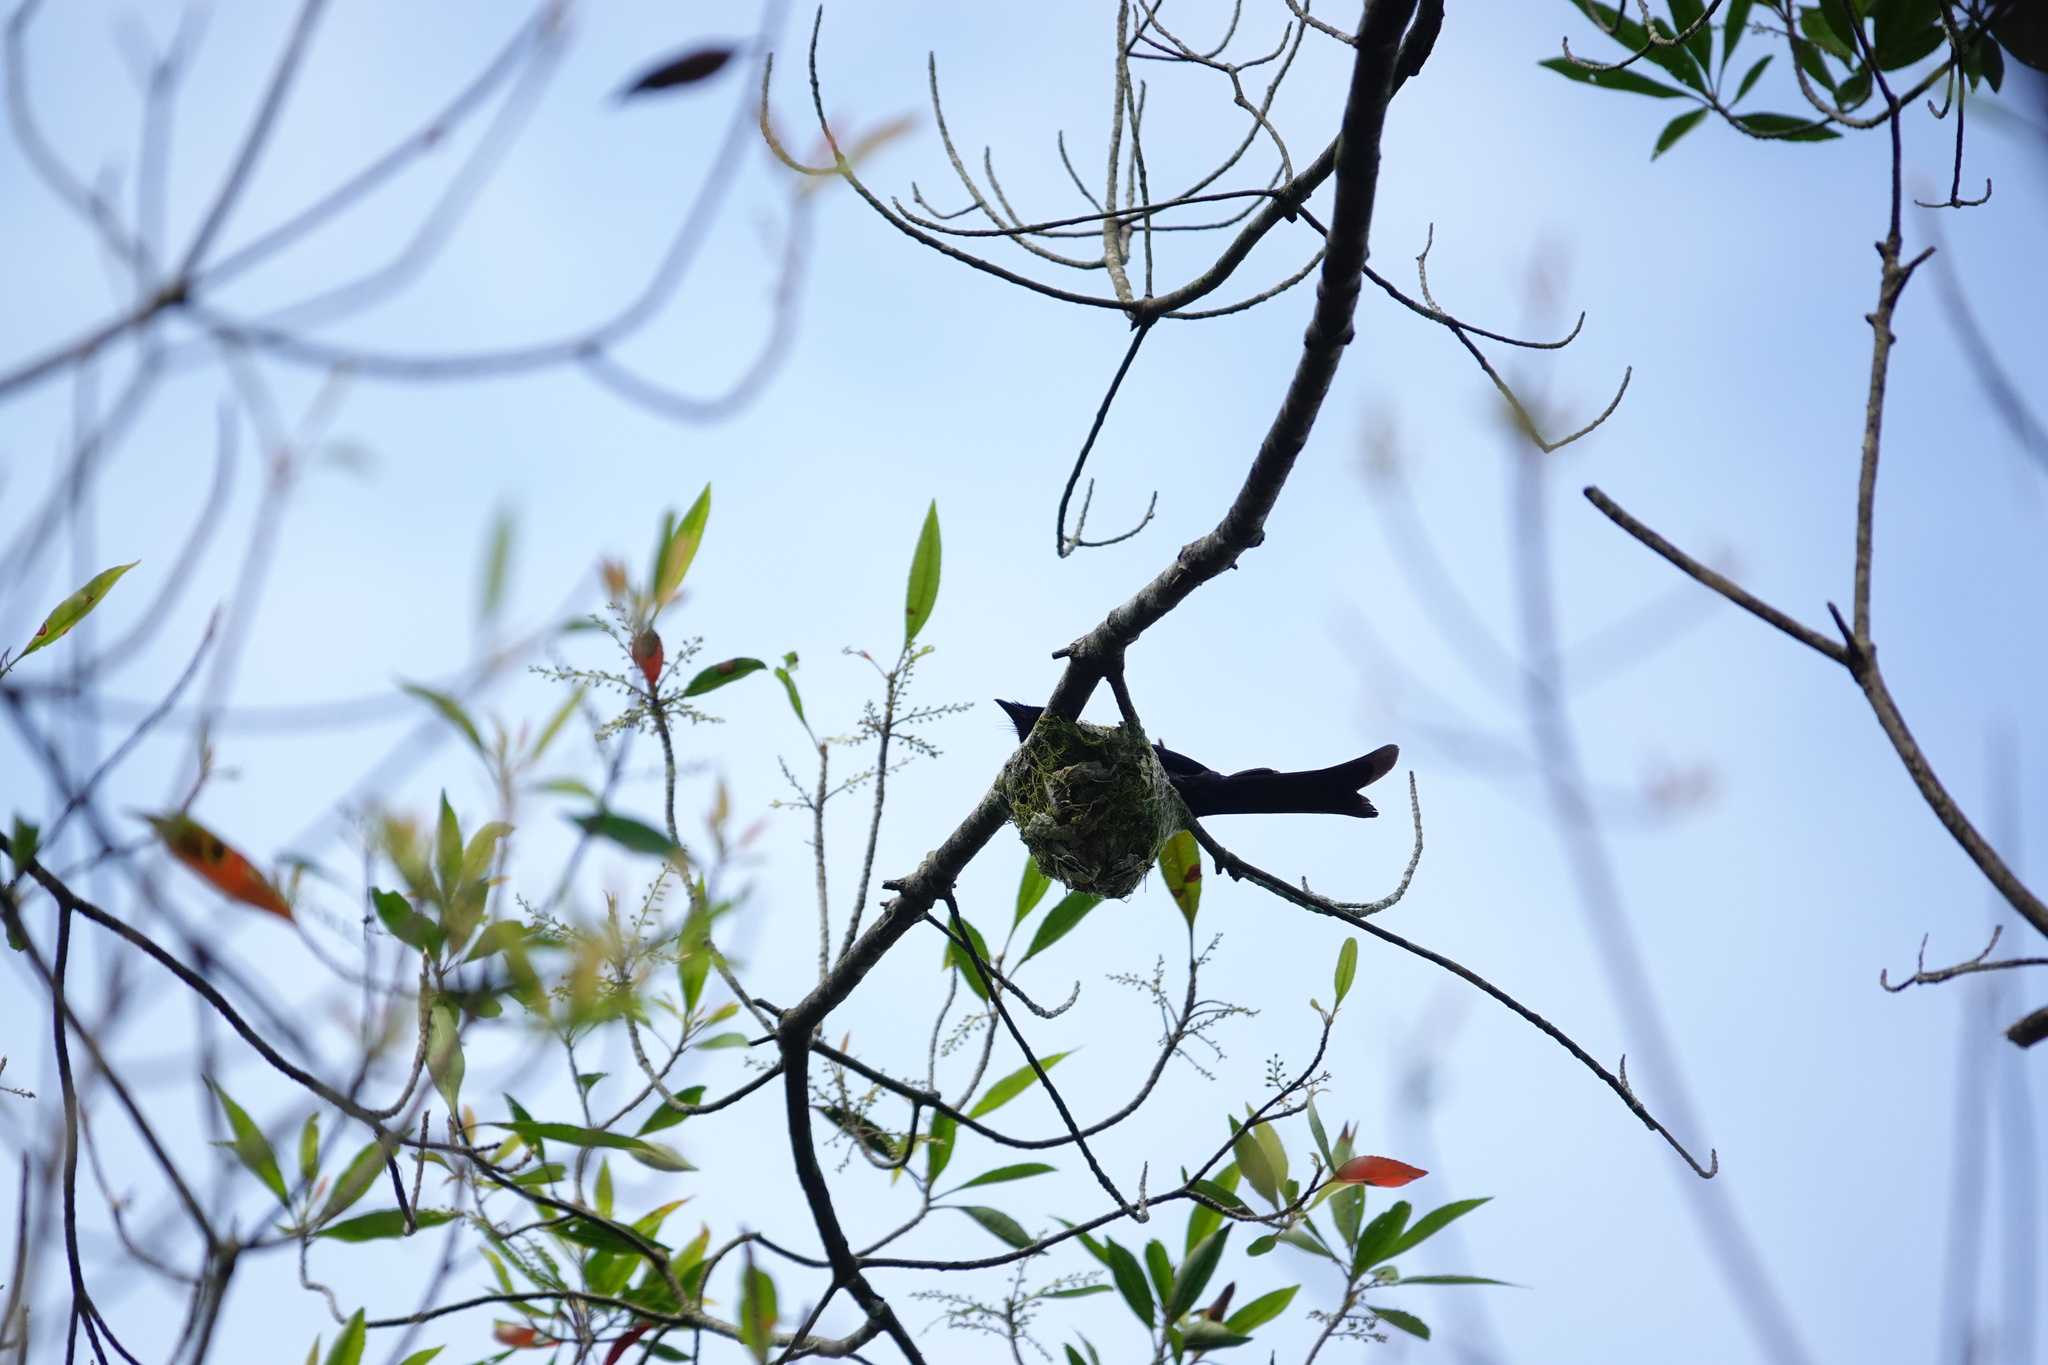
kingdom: Animalia
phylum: Chordata
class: Aves
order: Passeriformes
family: Dicruridae
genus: Dicrurus
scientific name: Dicrurus aeneus
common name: Bronzed drongo
